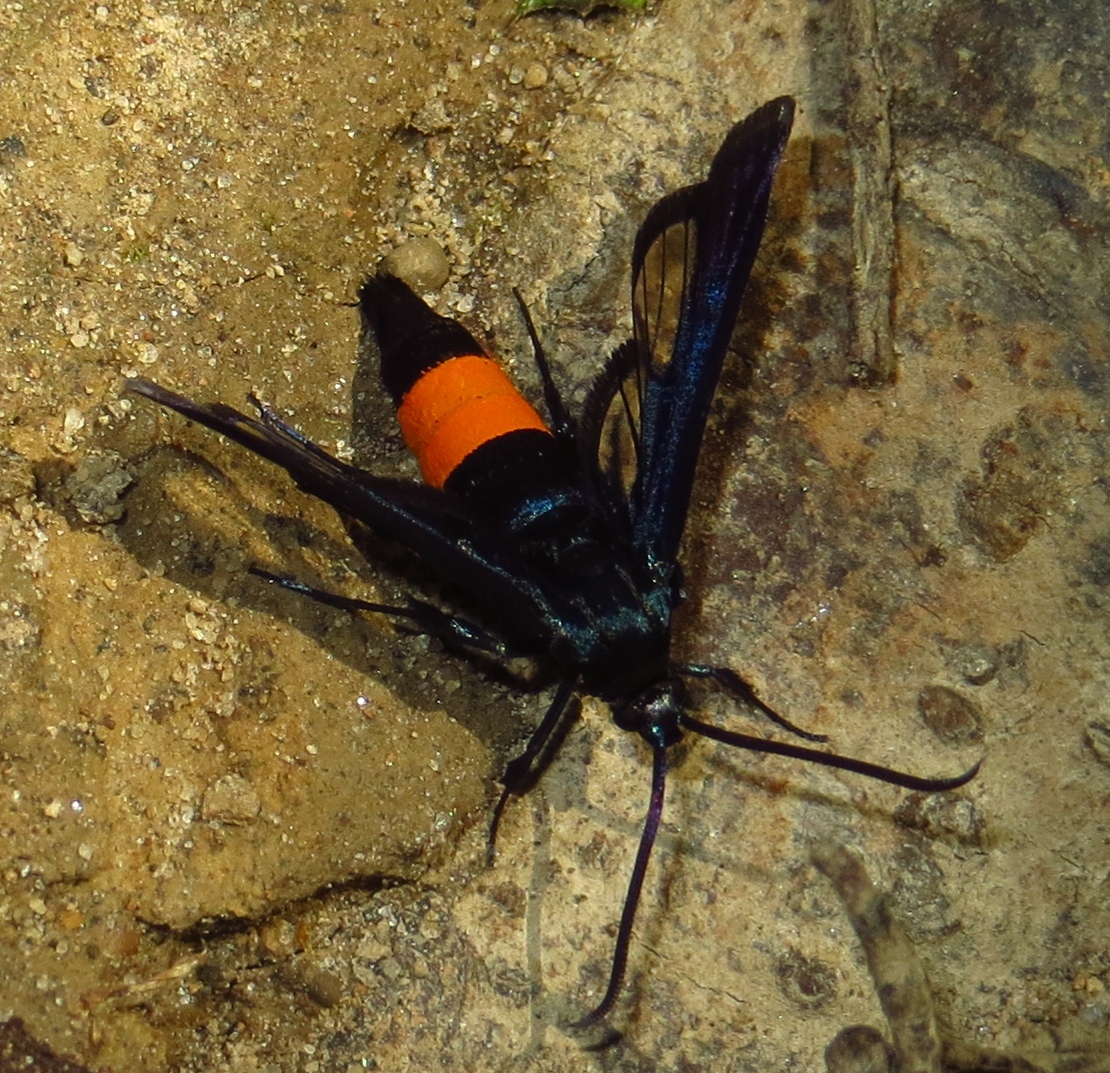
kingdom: Animalia
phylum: Arthropoda
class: Insecta
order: Lepidoptera
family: Sesiidae
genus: Synanthedon
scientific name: Synanthedon rubrofascia
